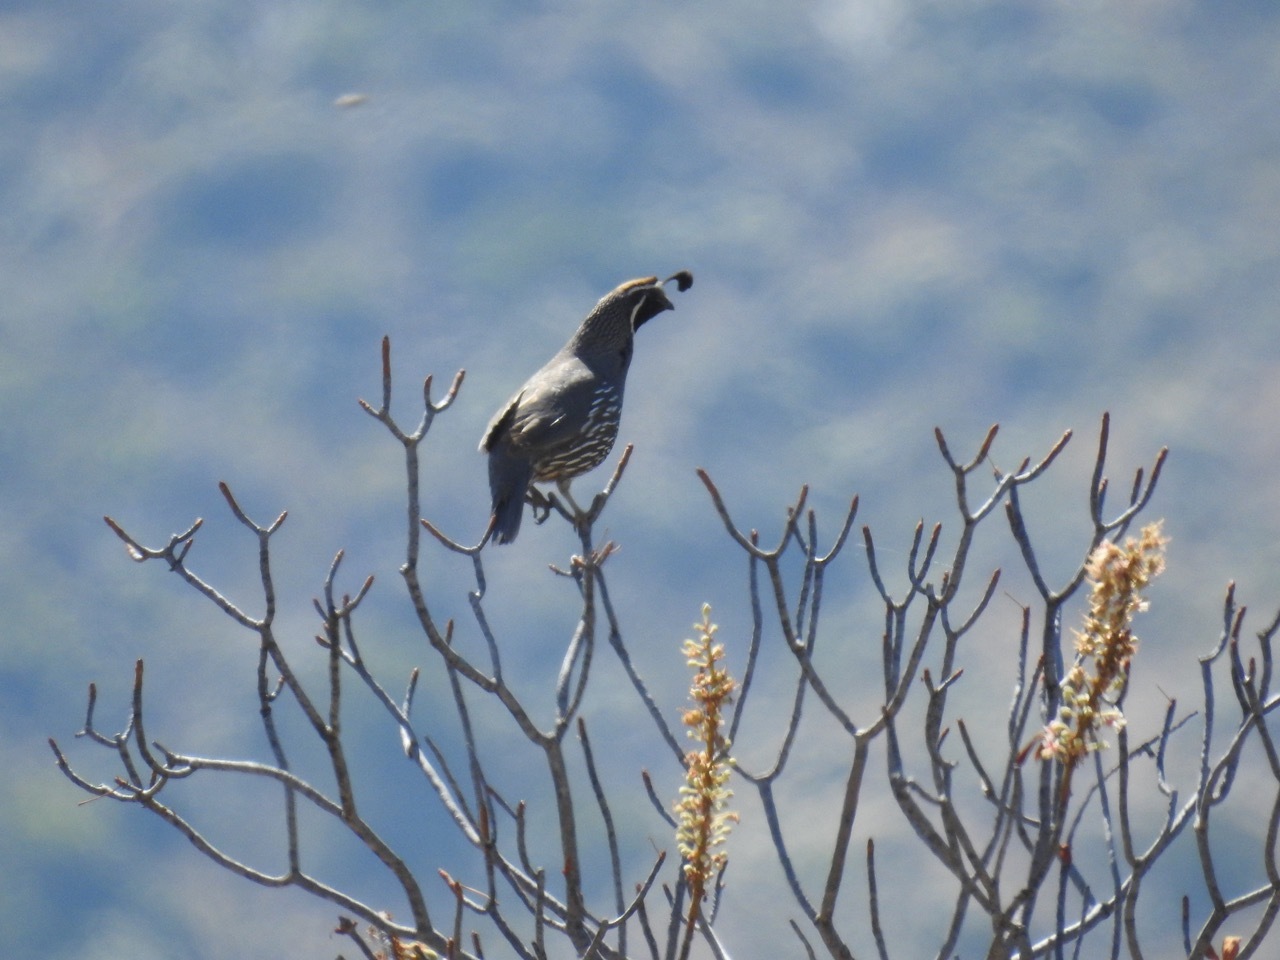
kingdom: Animalia
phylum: Chordata
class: Aves
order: Galliformes
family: Odontophoridae
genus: Callipepla
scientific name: Callipepla californica
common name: California quail
